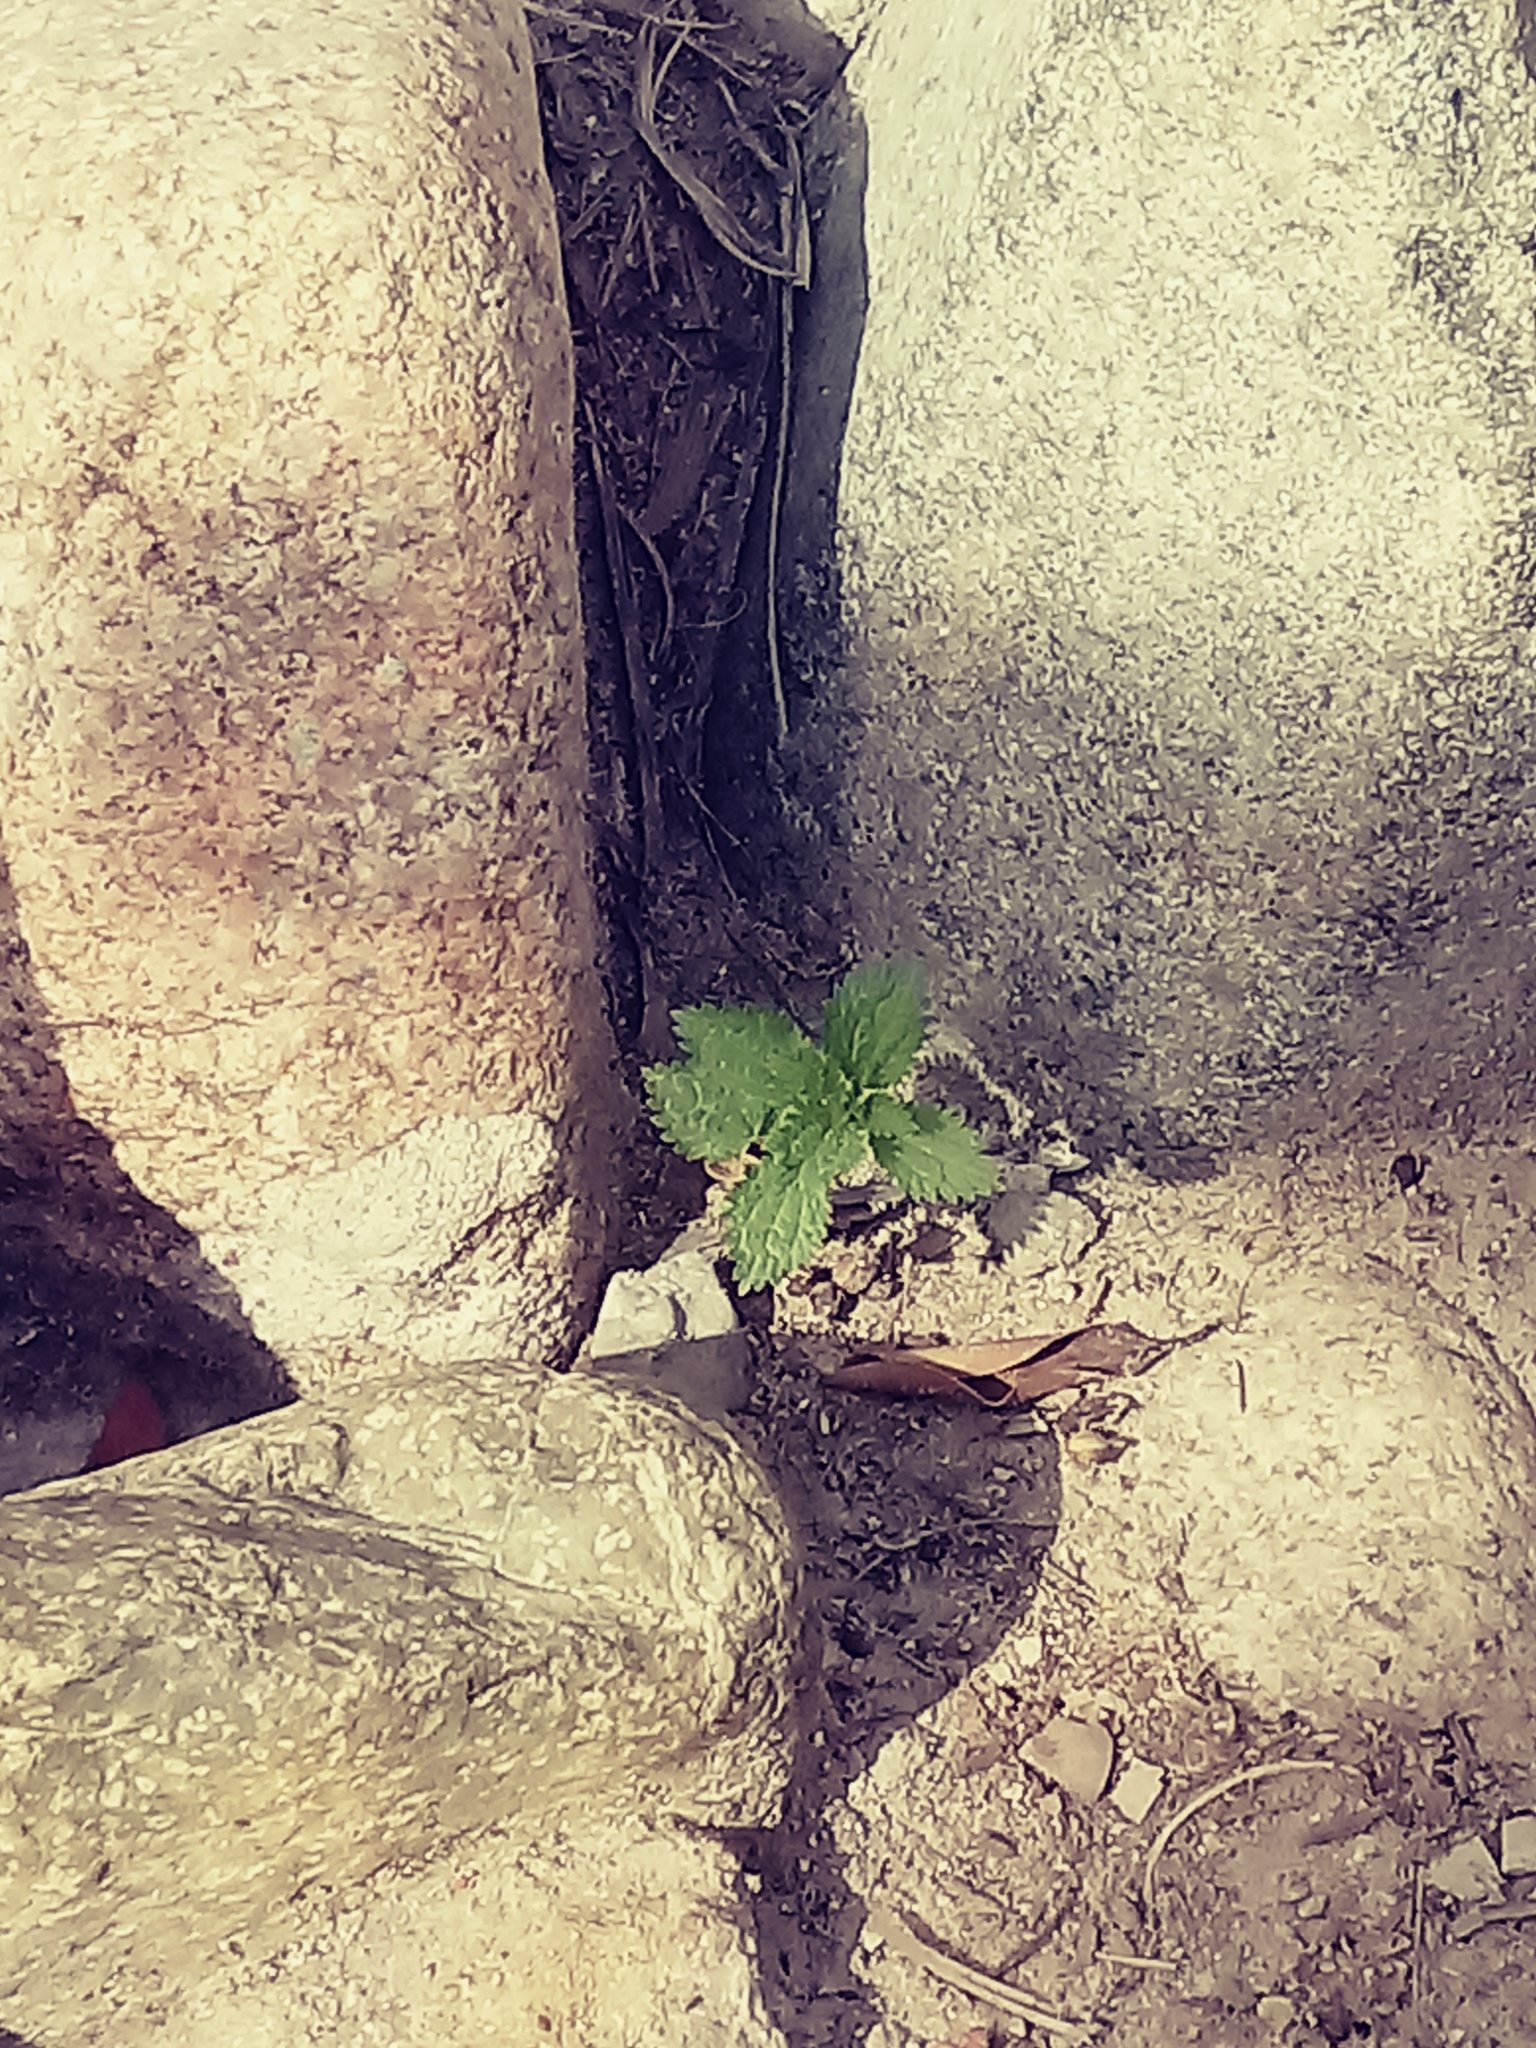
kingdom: Plantae
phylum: Tracheophyta
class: Magnoliopsida
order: Rosales
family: Urticaceae
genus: Urtica
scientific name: Urtica urens
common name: Dwarf nettle
